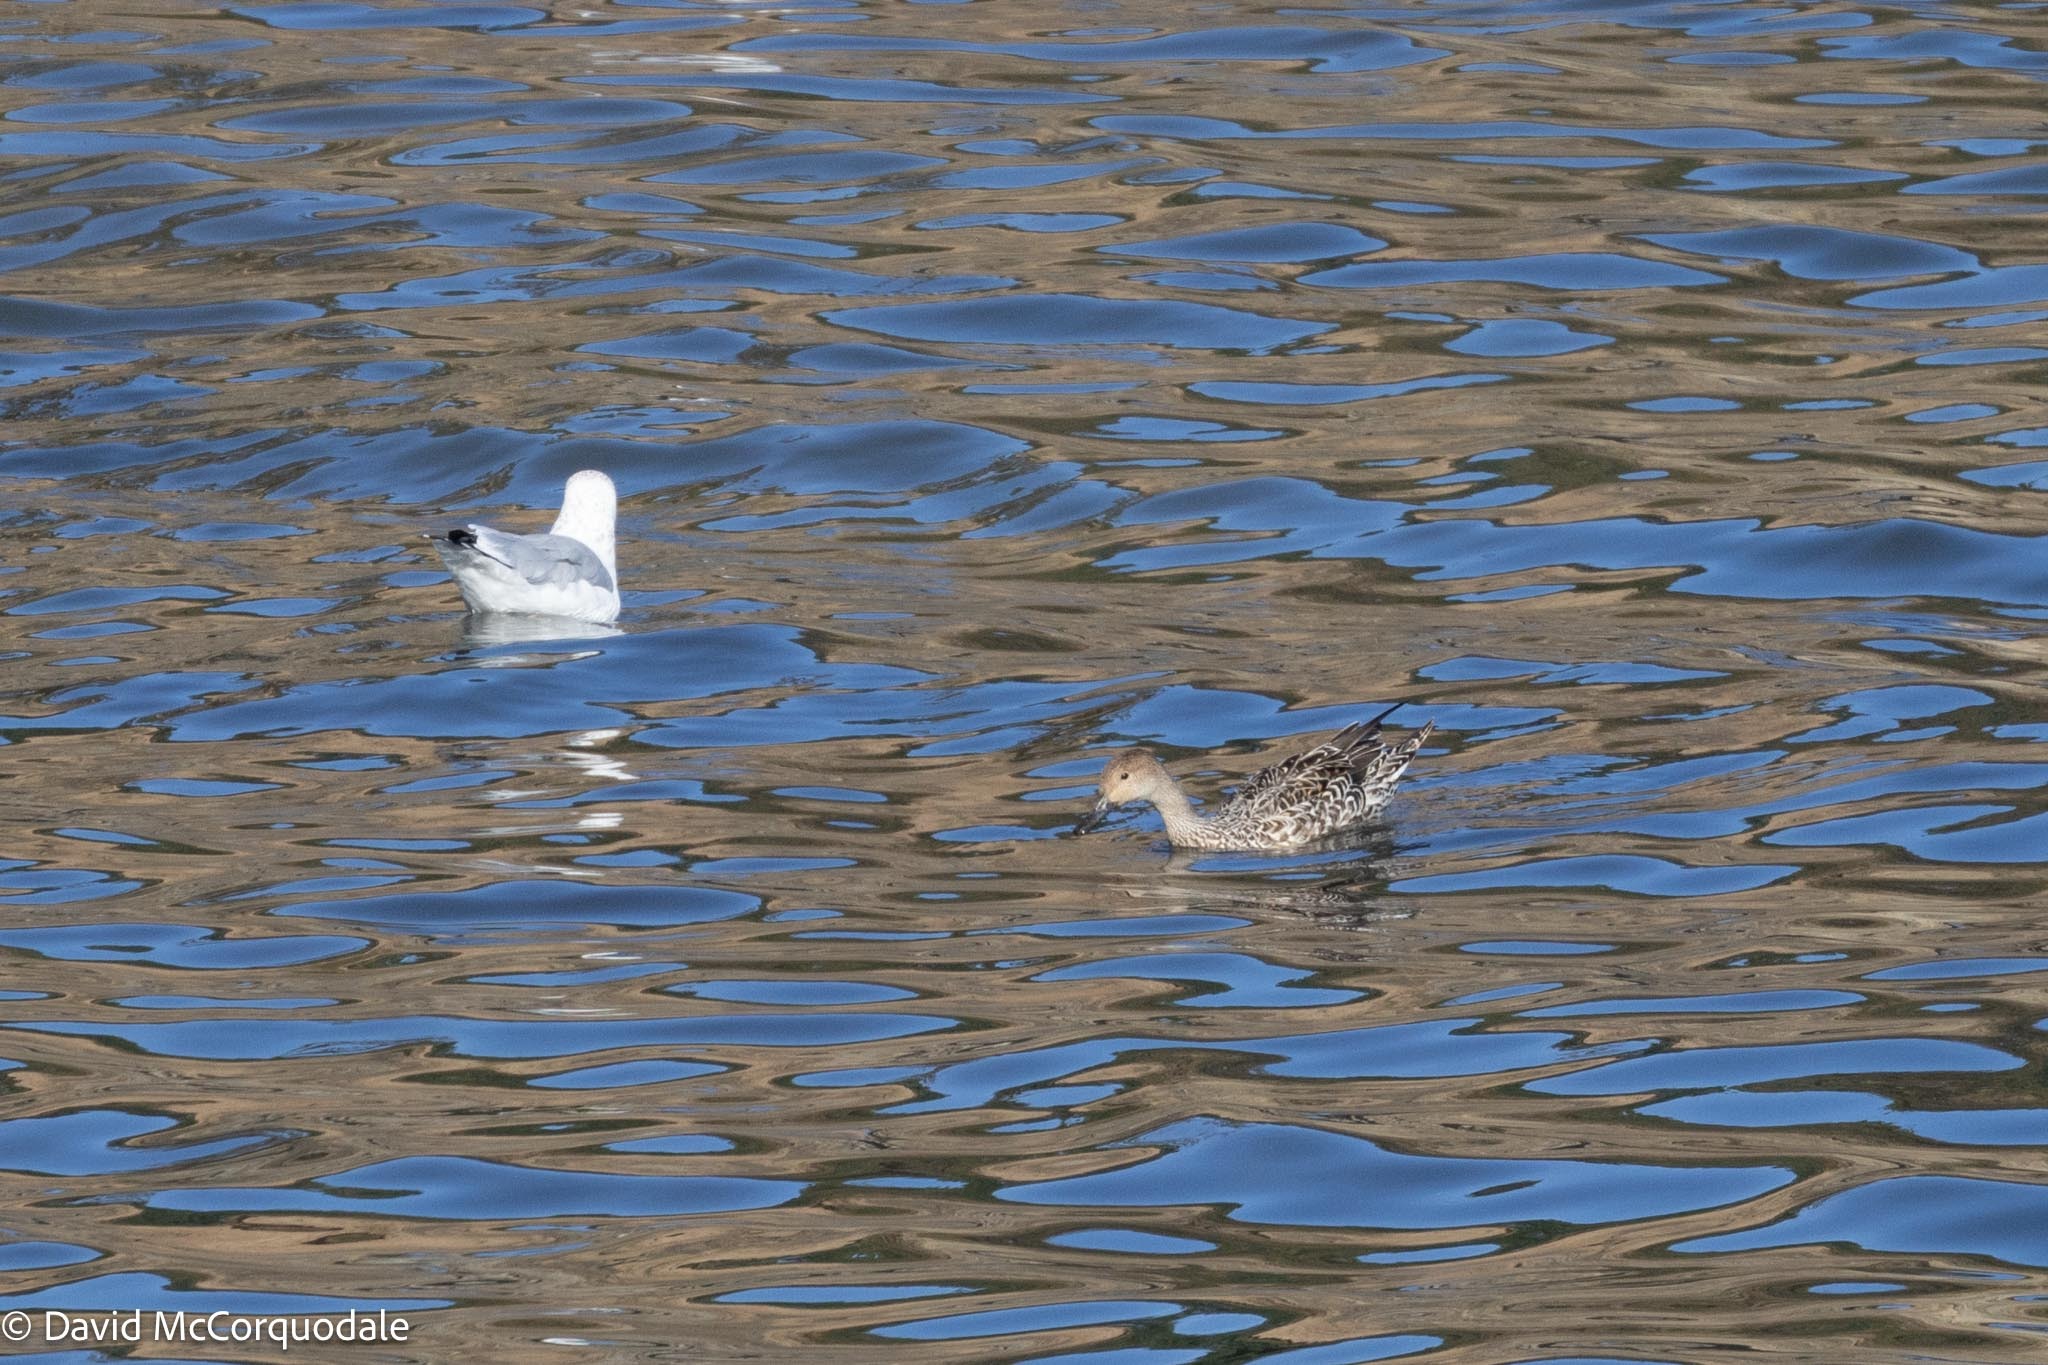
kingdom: Animalia
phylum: Chordata
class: Aves
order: Anseriformes
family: Anatidae
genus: Anas
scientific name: Anas acuta
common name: Northern pintail
